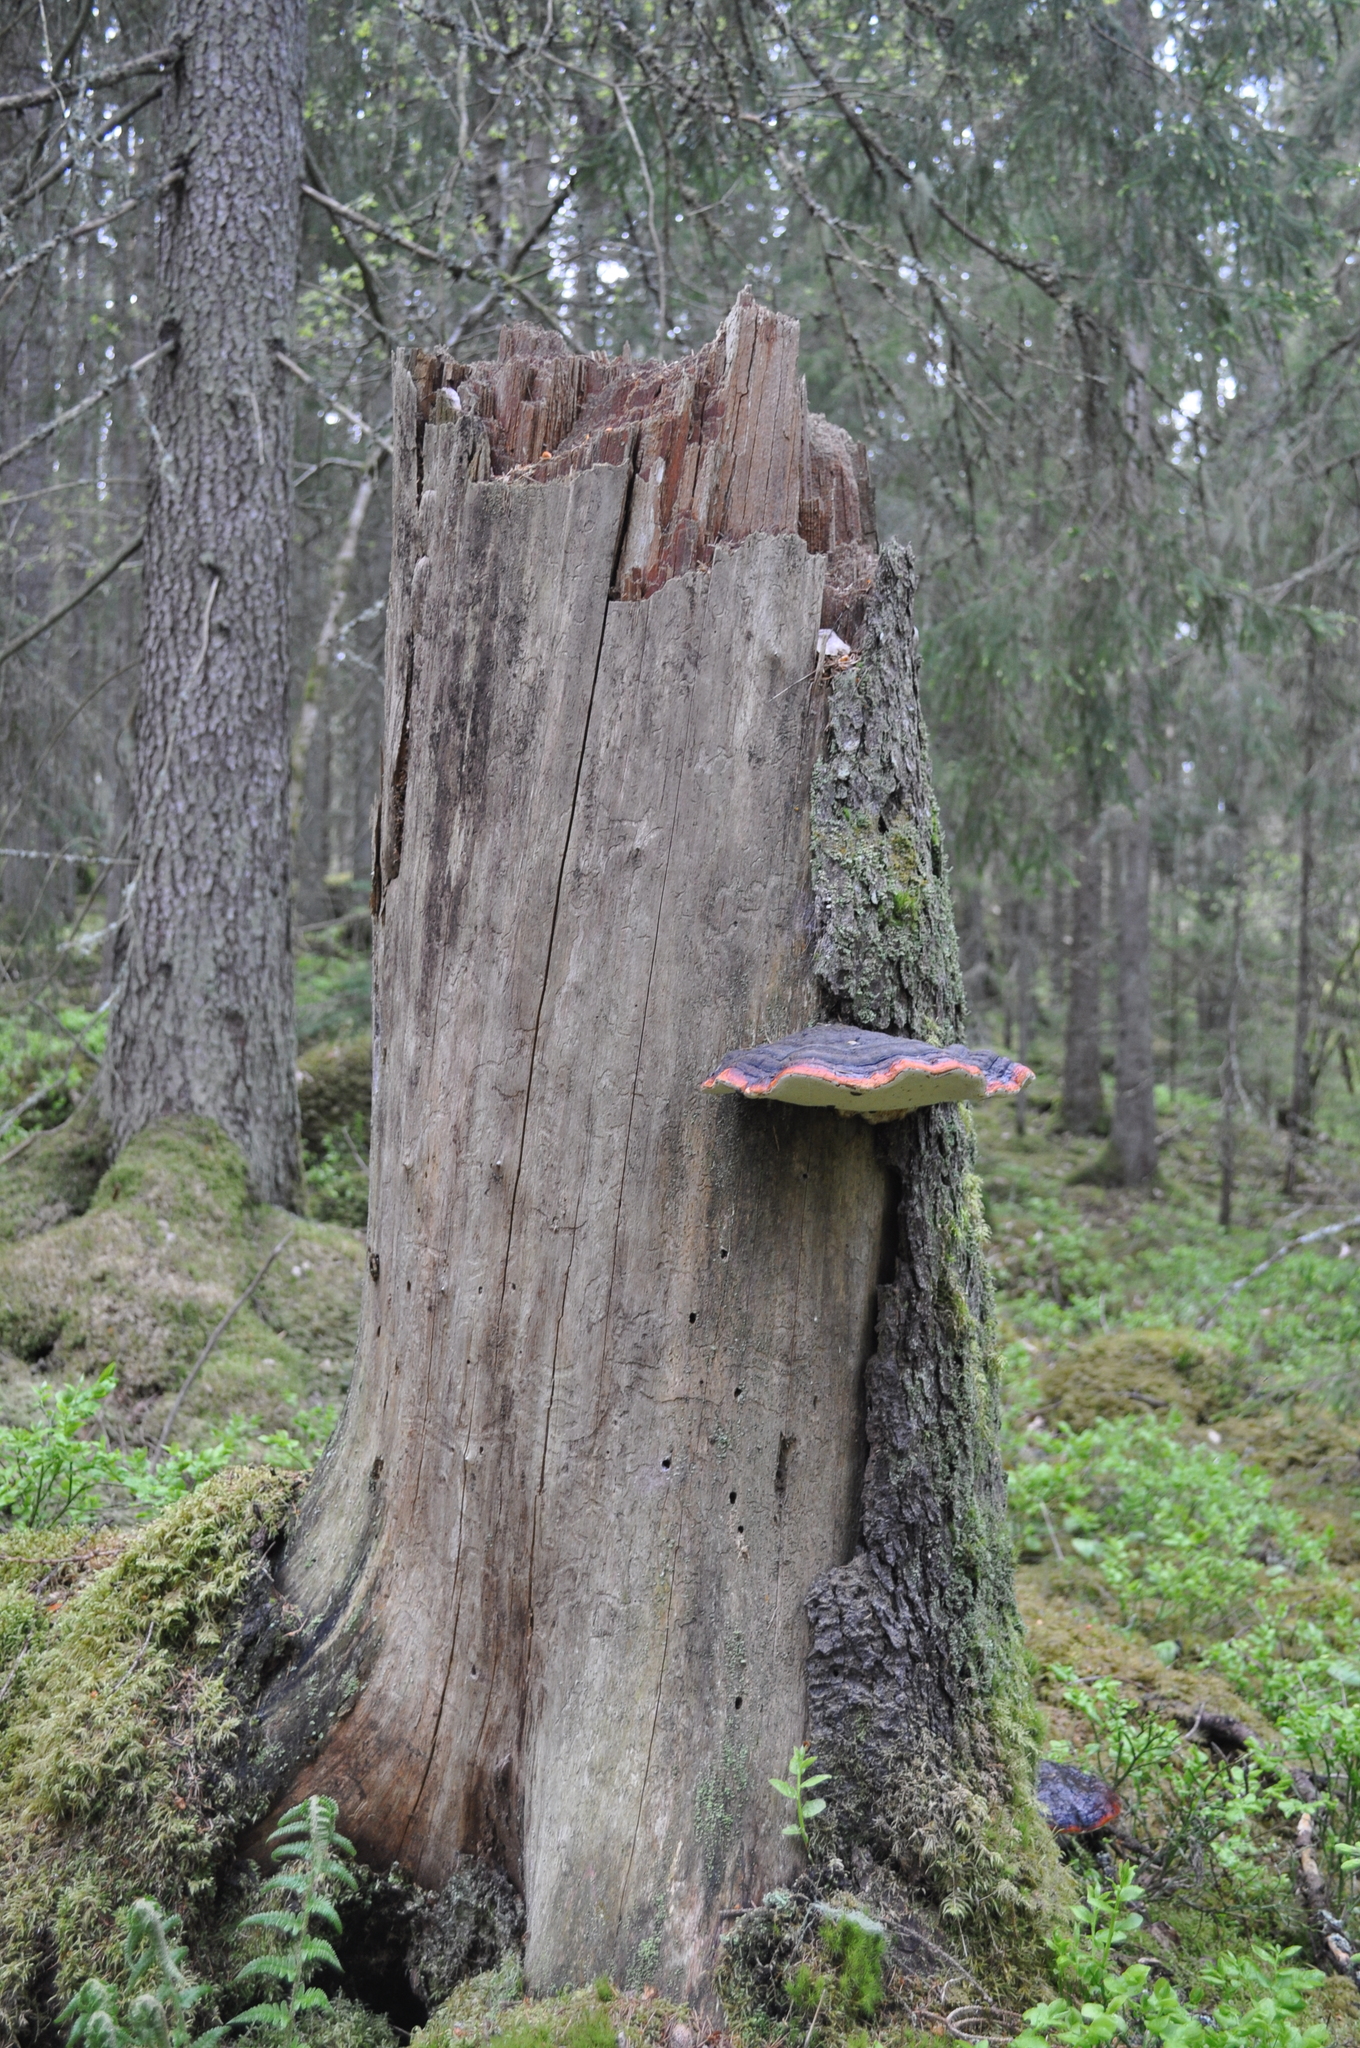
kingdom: Fungi
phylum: Basidiomycota
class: Agaricomycetes
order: Polyporales
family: Fomitopsidaceae
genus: Fomitopsis
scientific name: Fomitopsis pinicola
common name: Red-belted bracket
